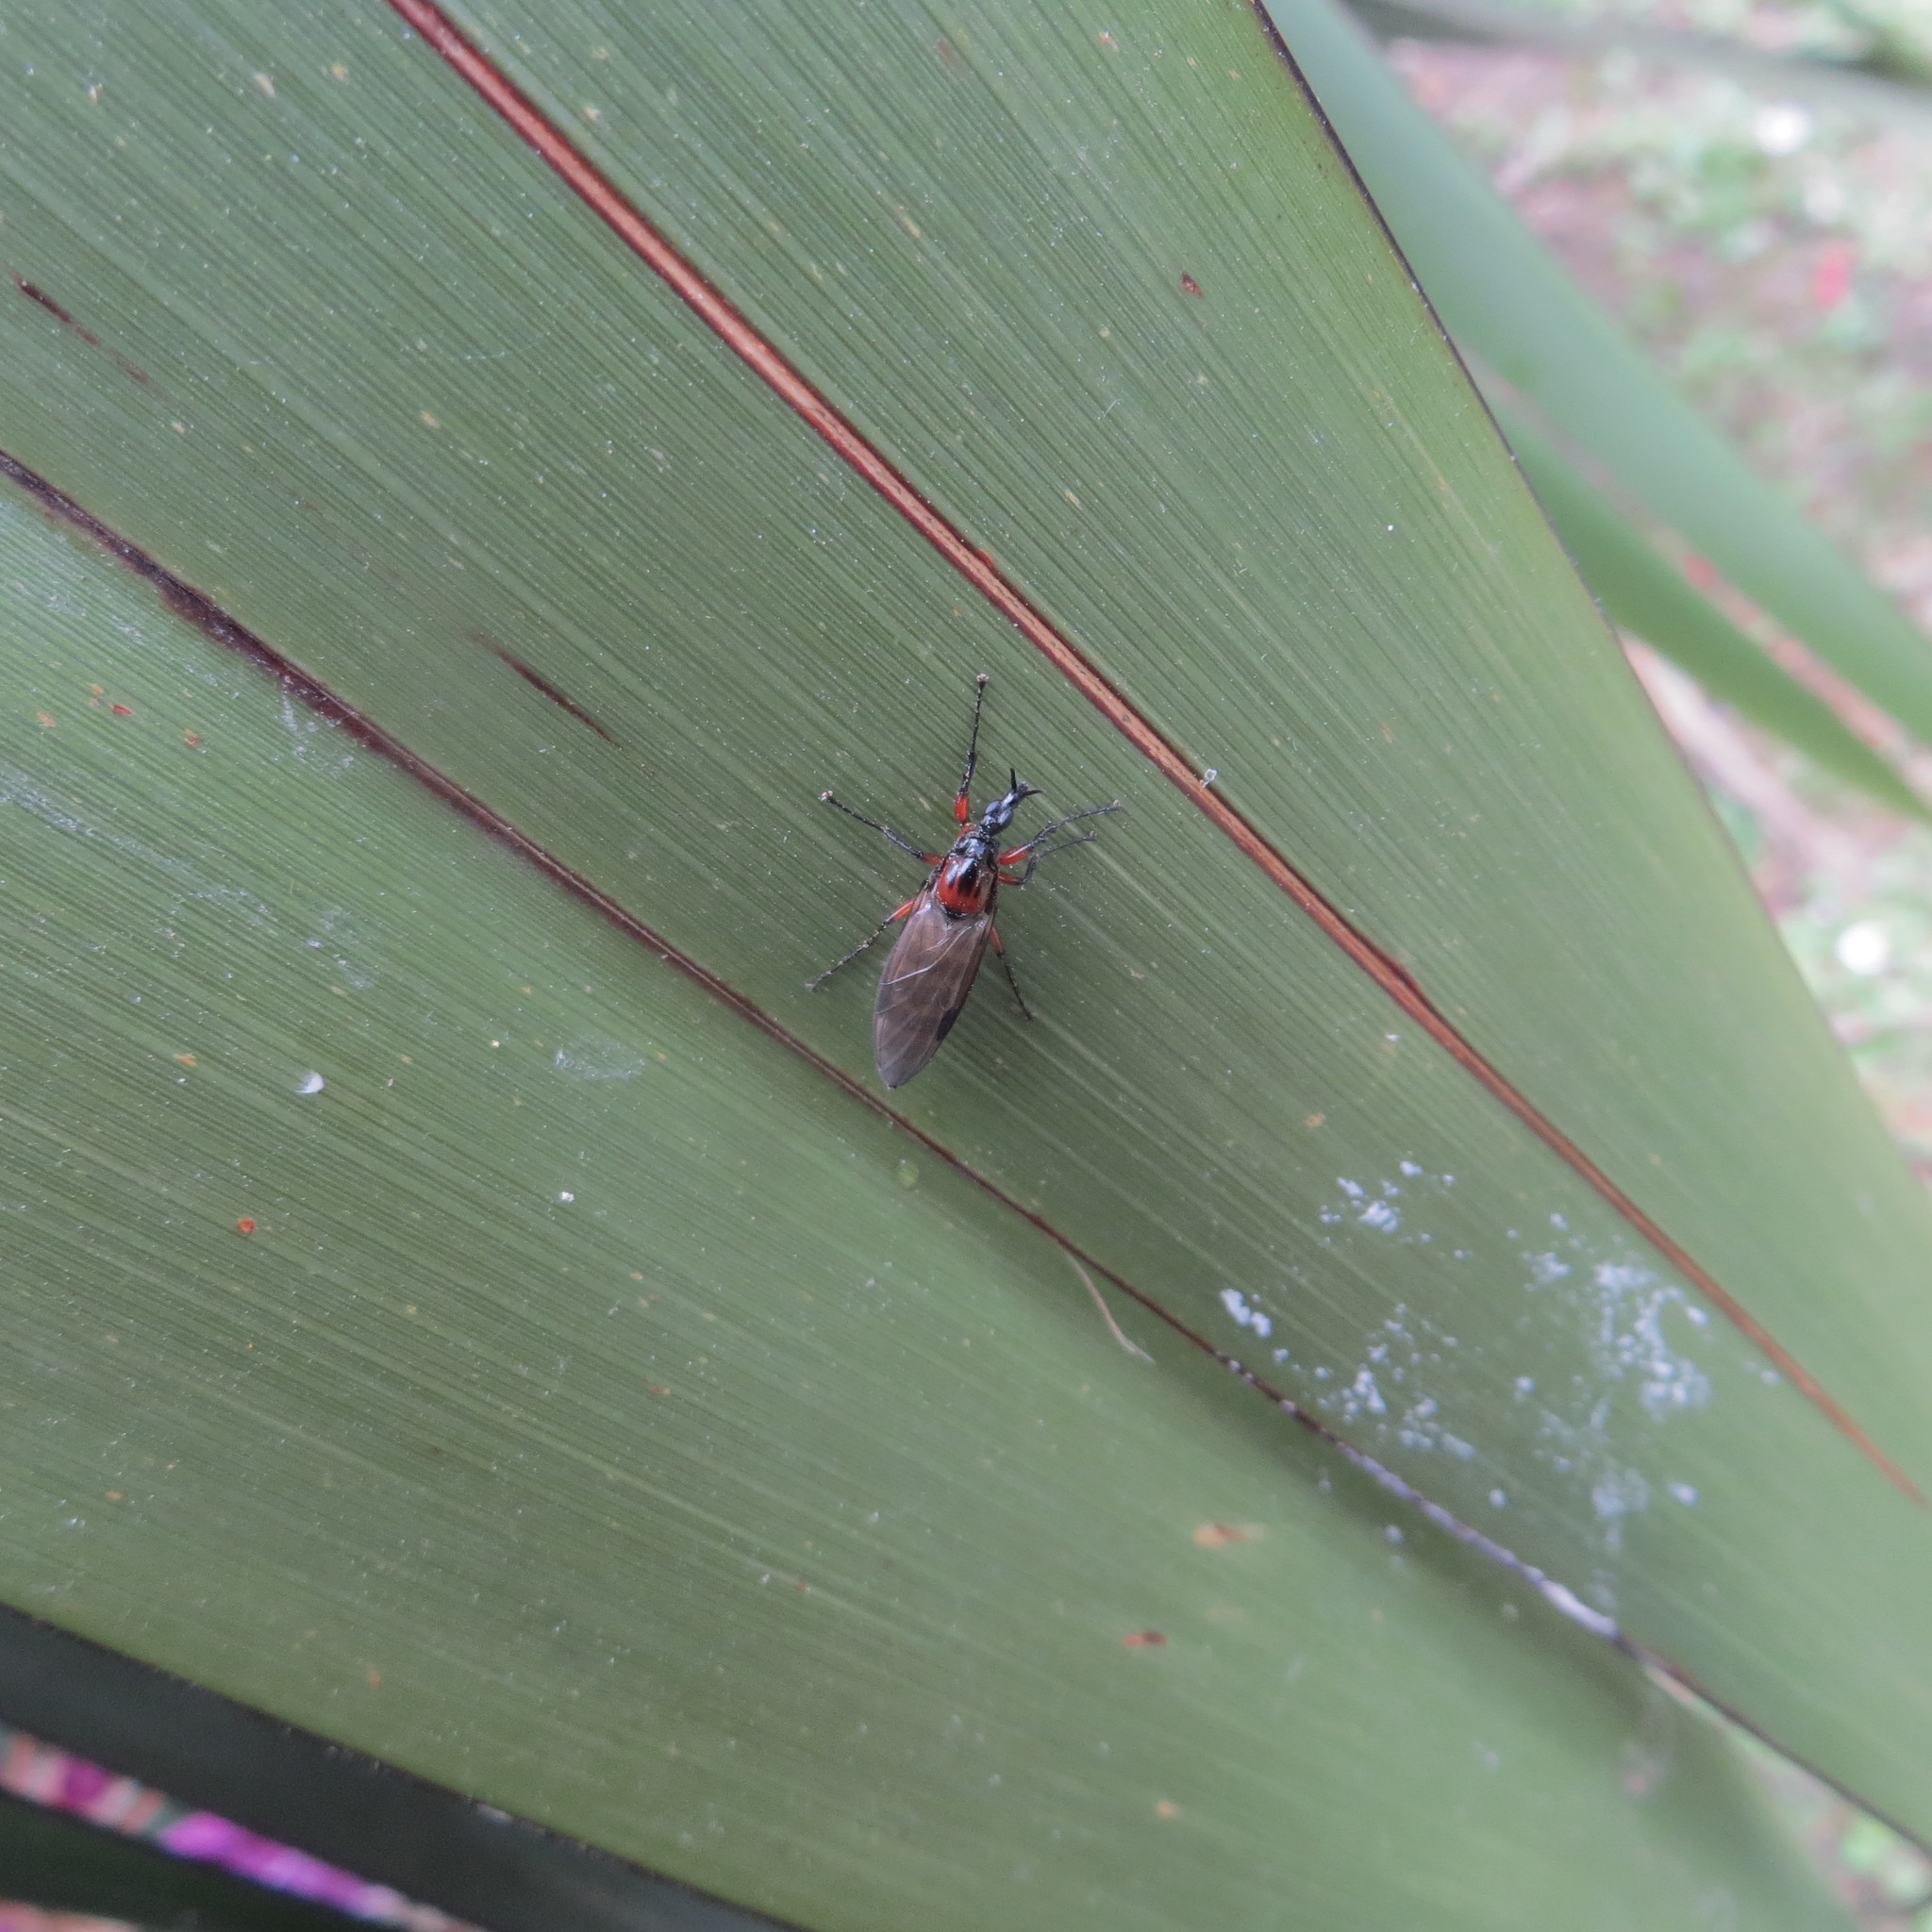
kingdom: Animalia
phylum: Arthropoda
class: Insecta
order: Diptera
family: Bibionidae
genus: Dilophus
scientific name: Dilophus nigrostigma
